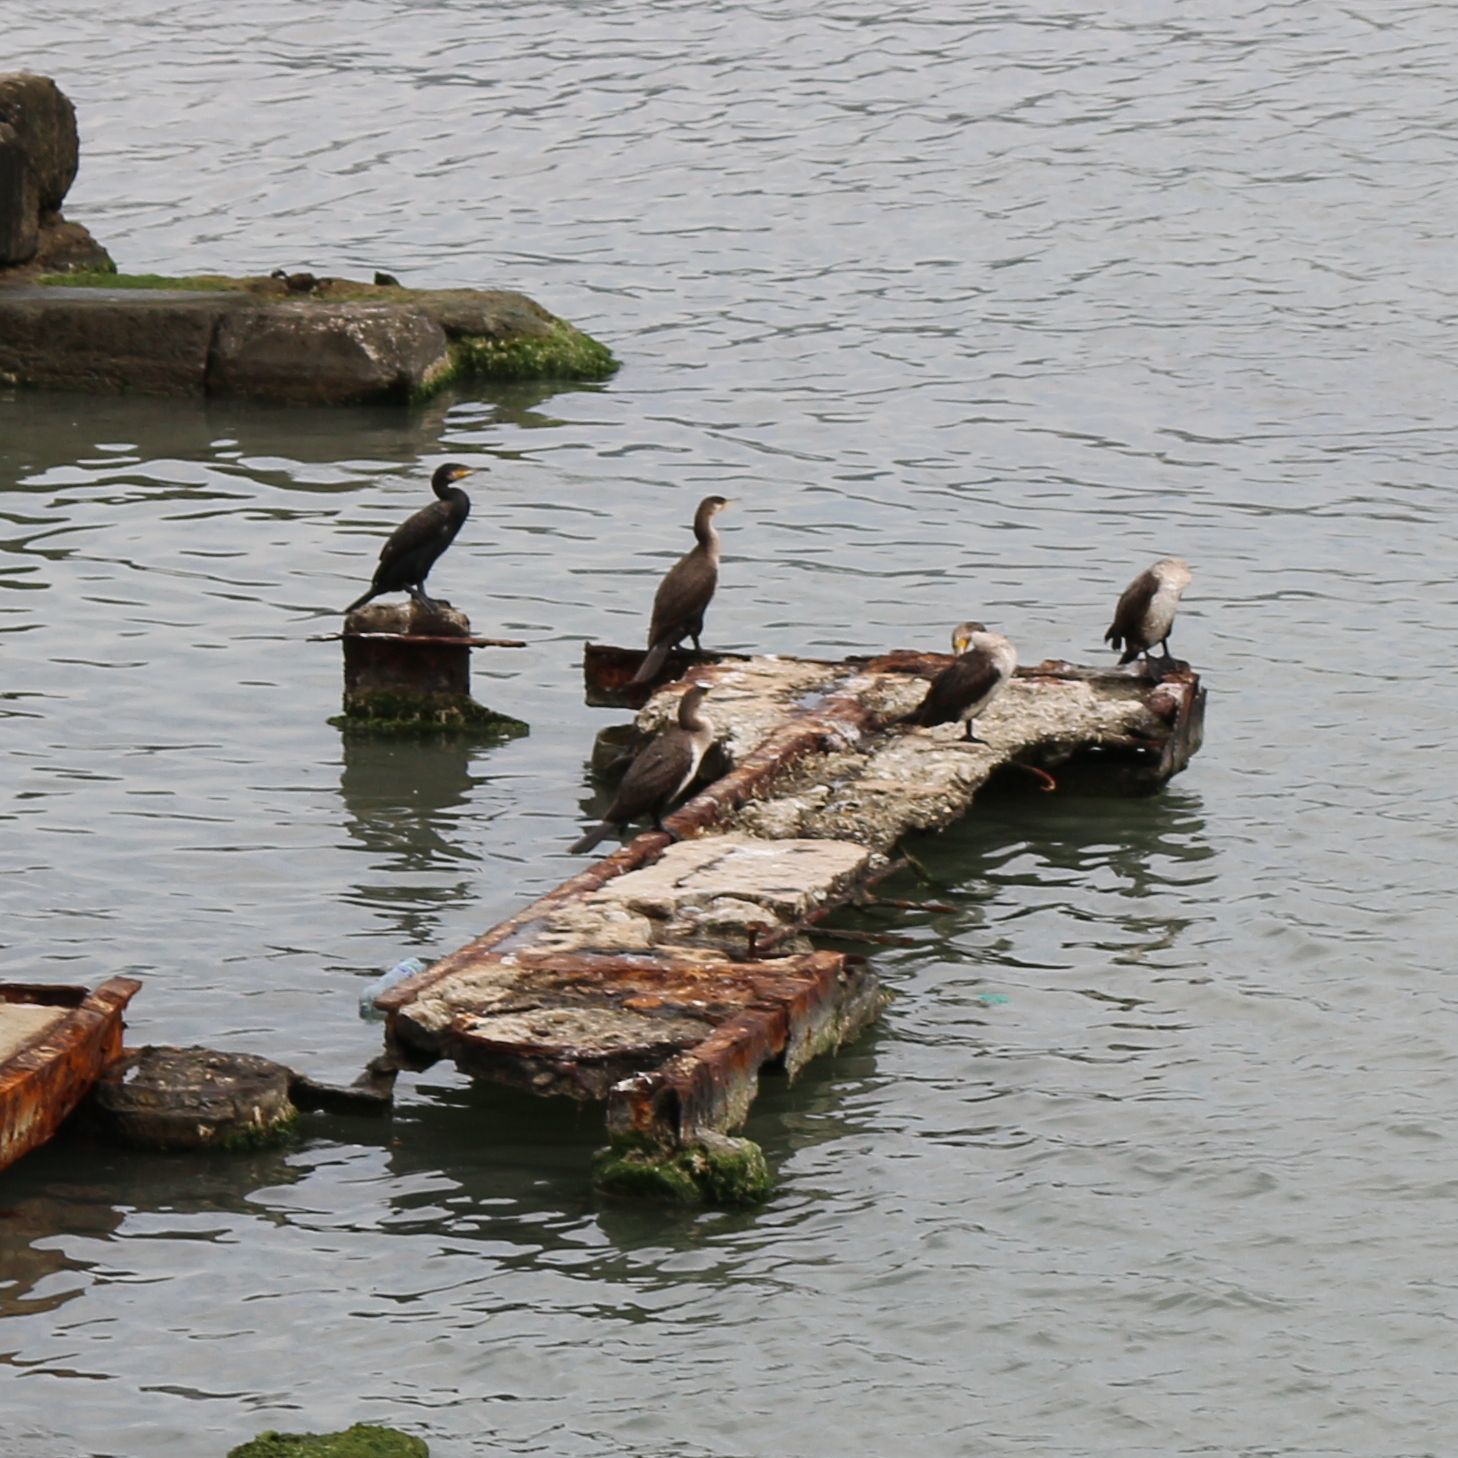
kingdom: Animalia
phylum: Chordata
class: Aves
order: Suliformes
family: Phalacrocoracidae
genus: Phalacrocorax
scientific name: Phalacrocorax carbo
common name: Great cormorant
